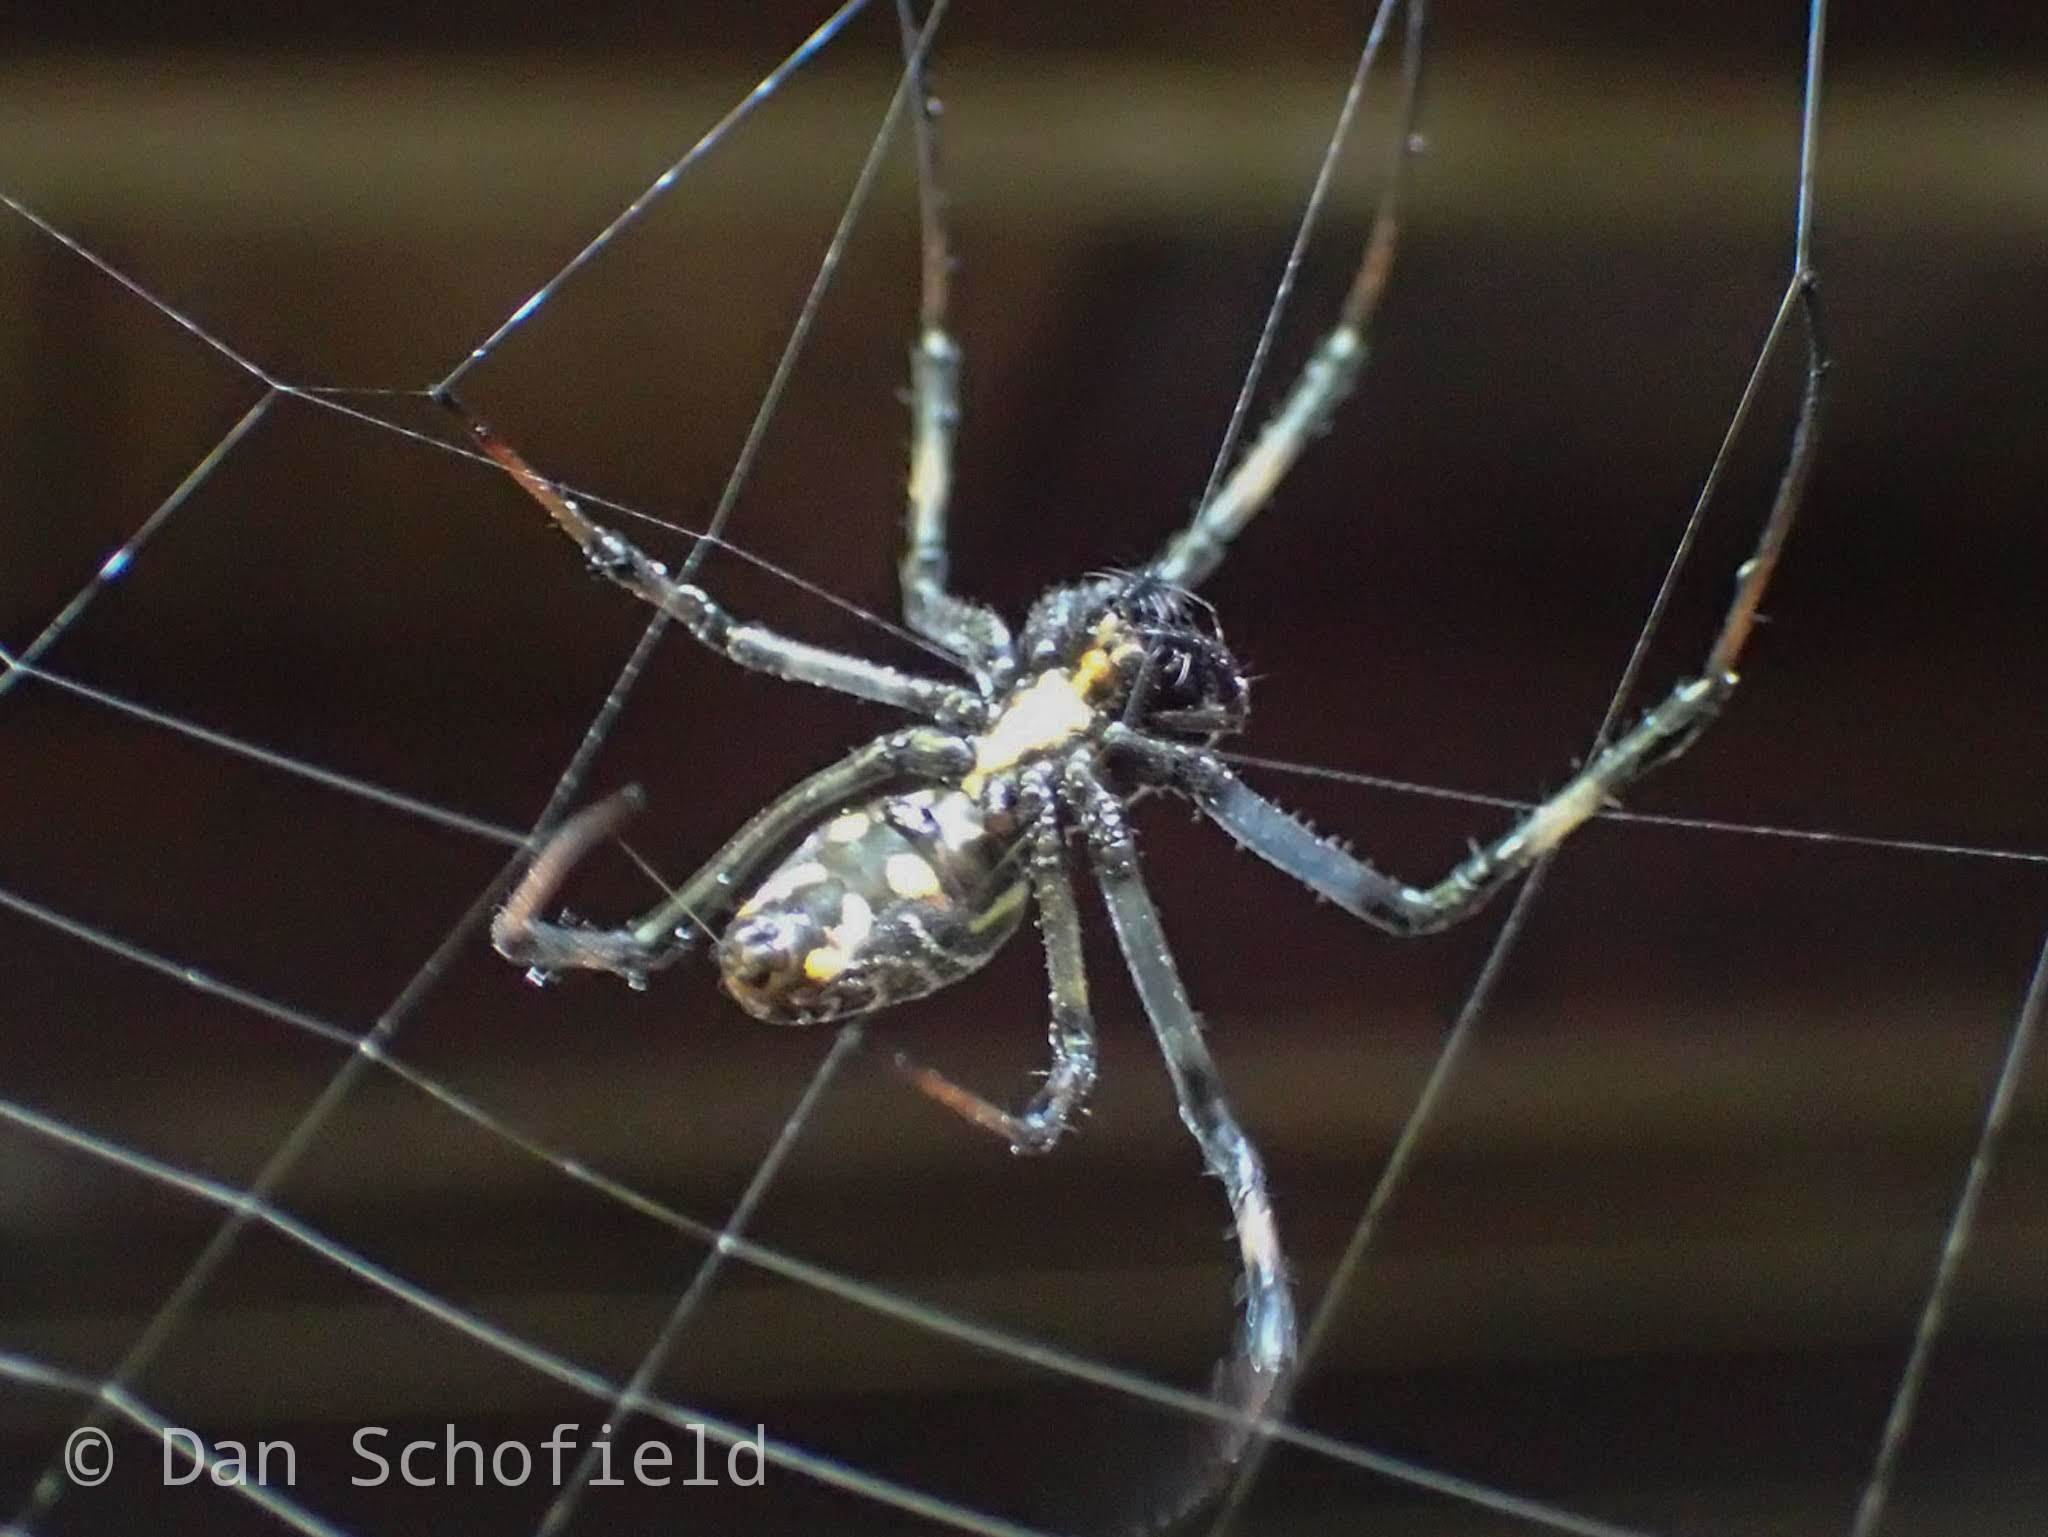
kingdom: Animalia
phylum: Arthropoda
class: Arachnida
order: Araneae
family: Araneidae
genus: Nephilengys
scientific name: Nephilengys malabarensis
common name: Asian hermit spider
